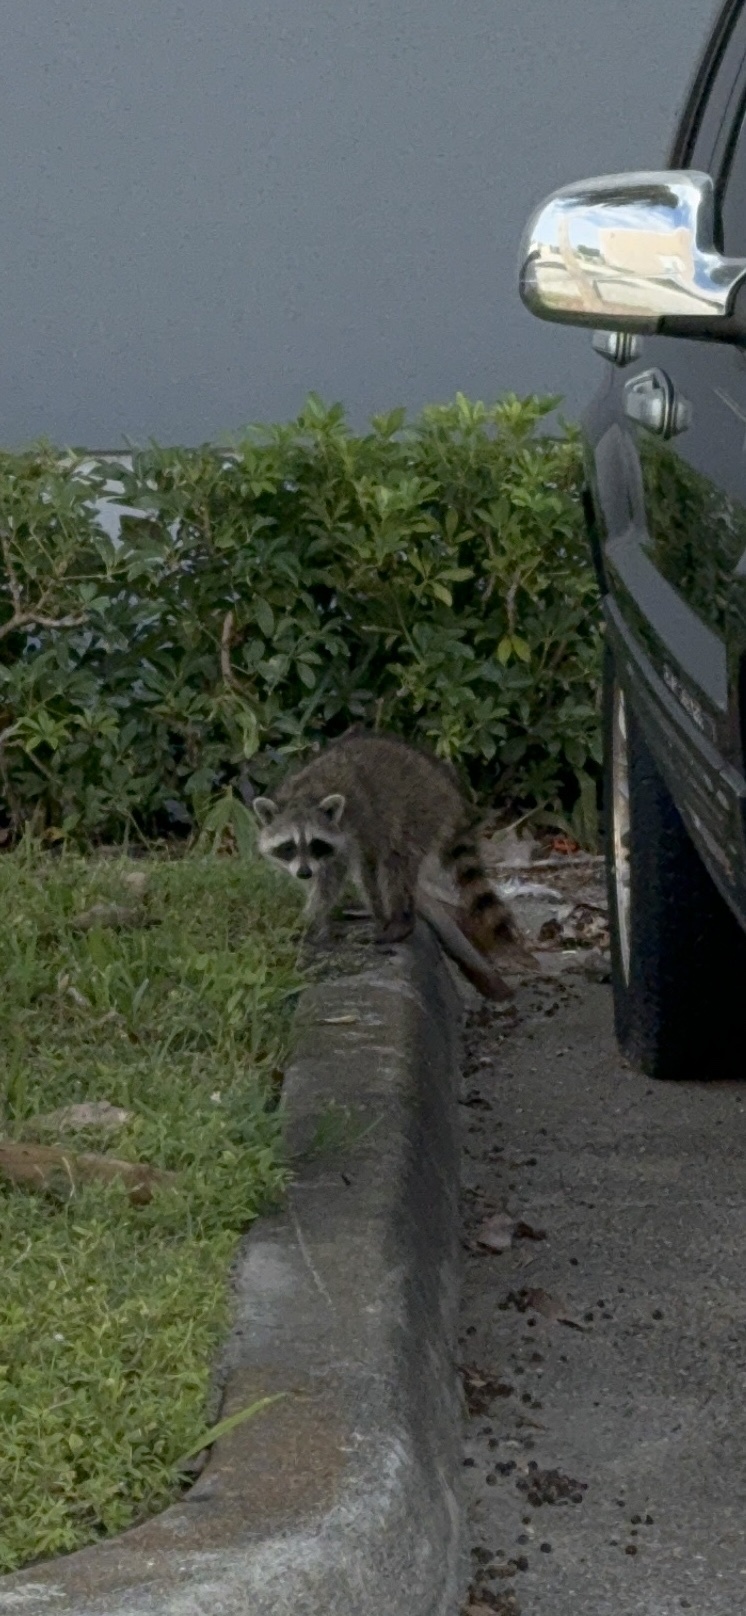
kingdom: Animalia
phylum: Chordata
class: Mammalia
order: Carnivora
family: Procyonidae
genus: Procyon
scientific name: Procyon lotor
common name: Raccoon
